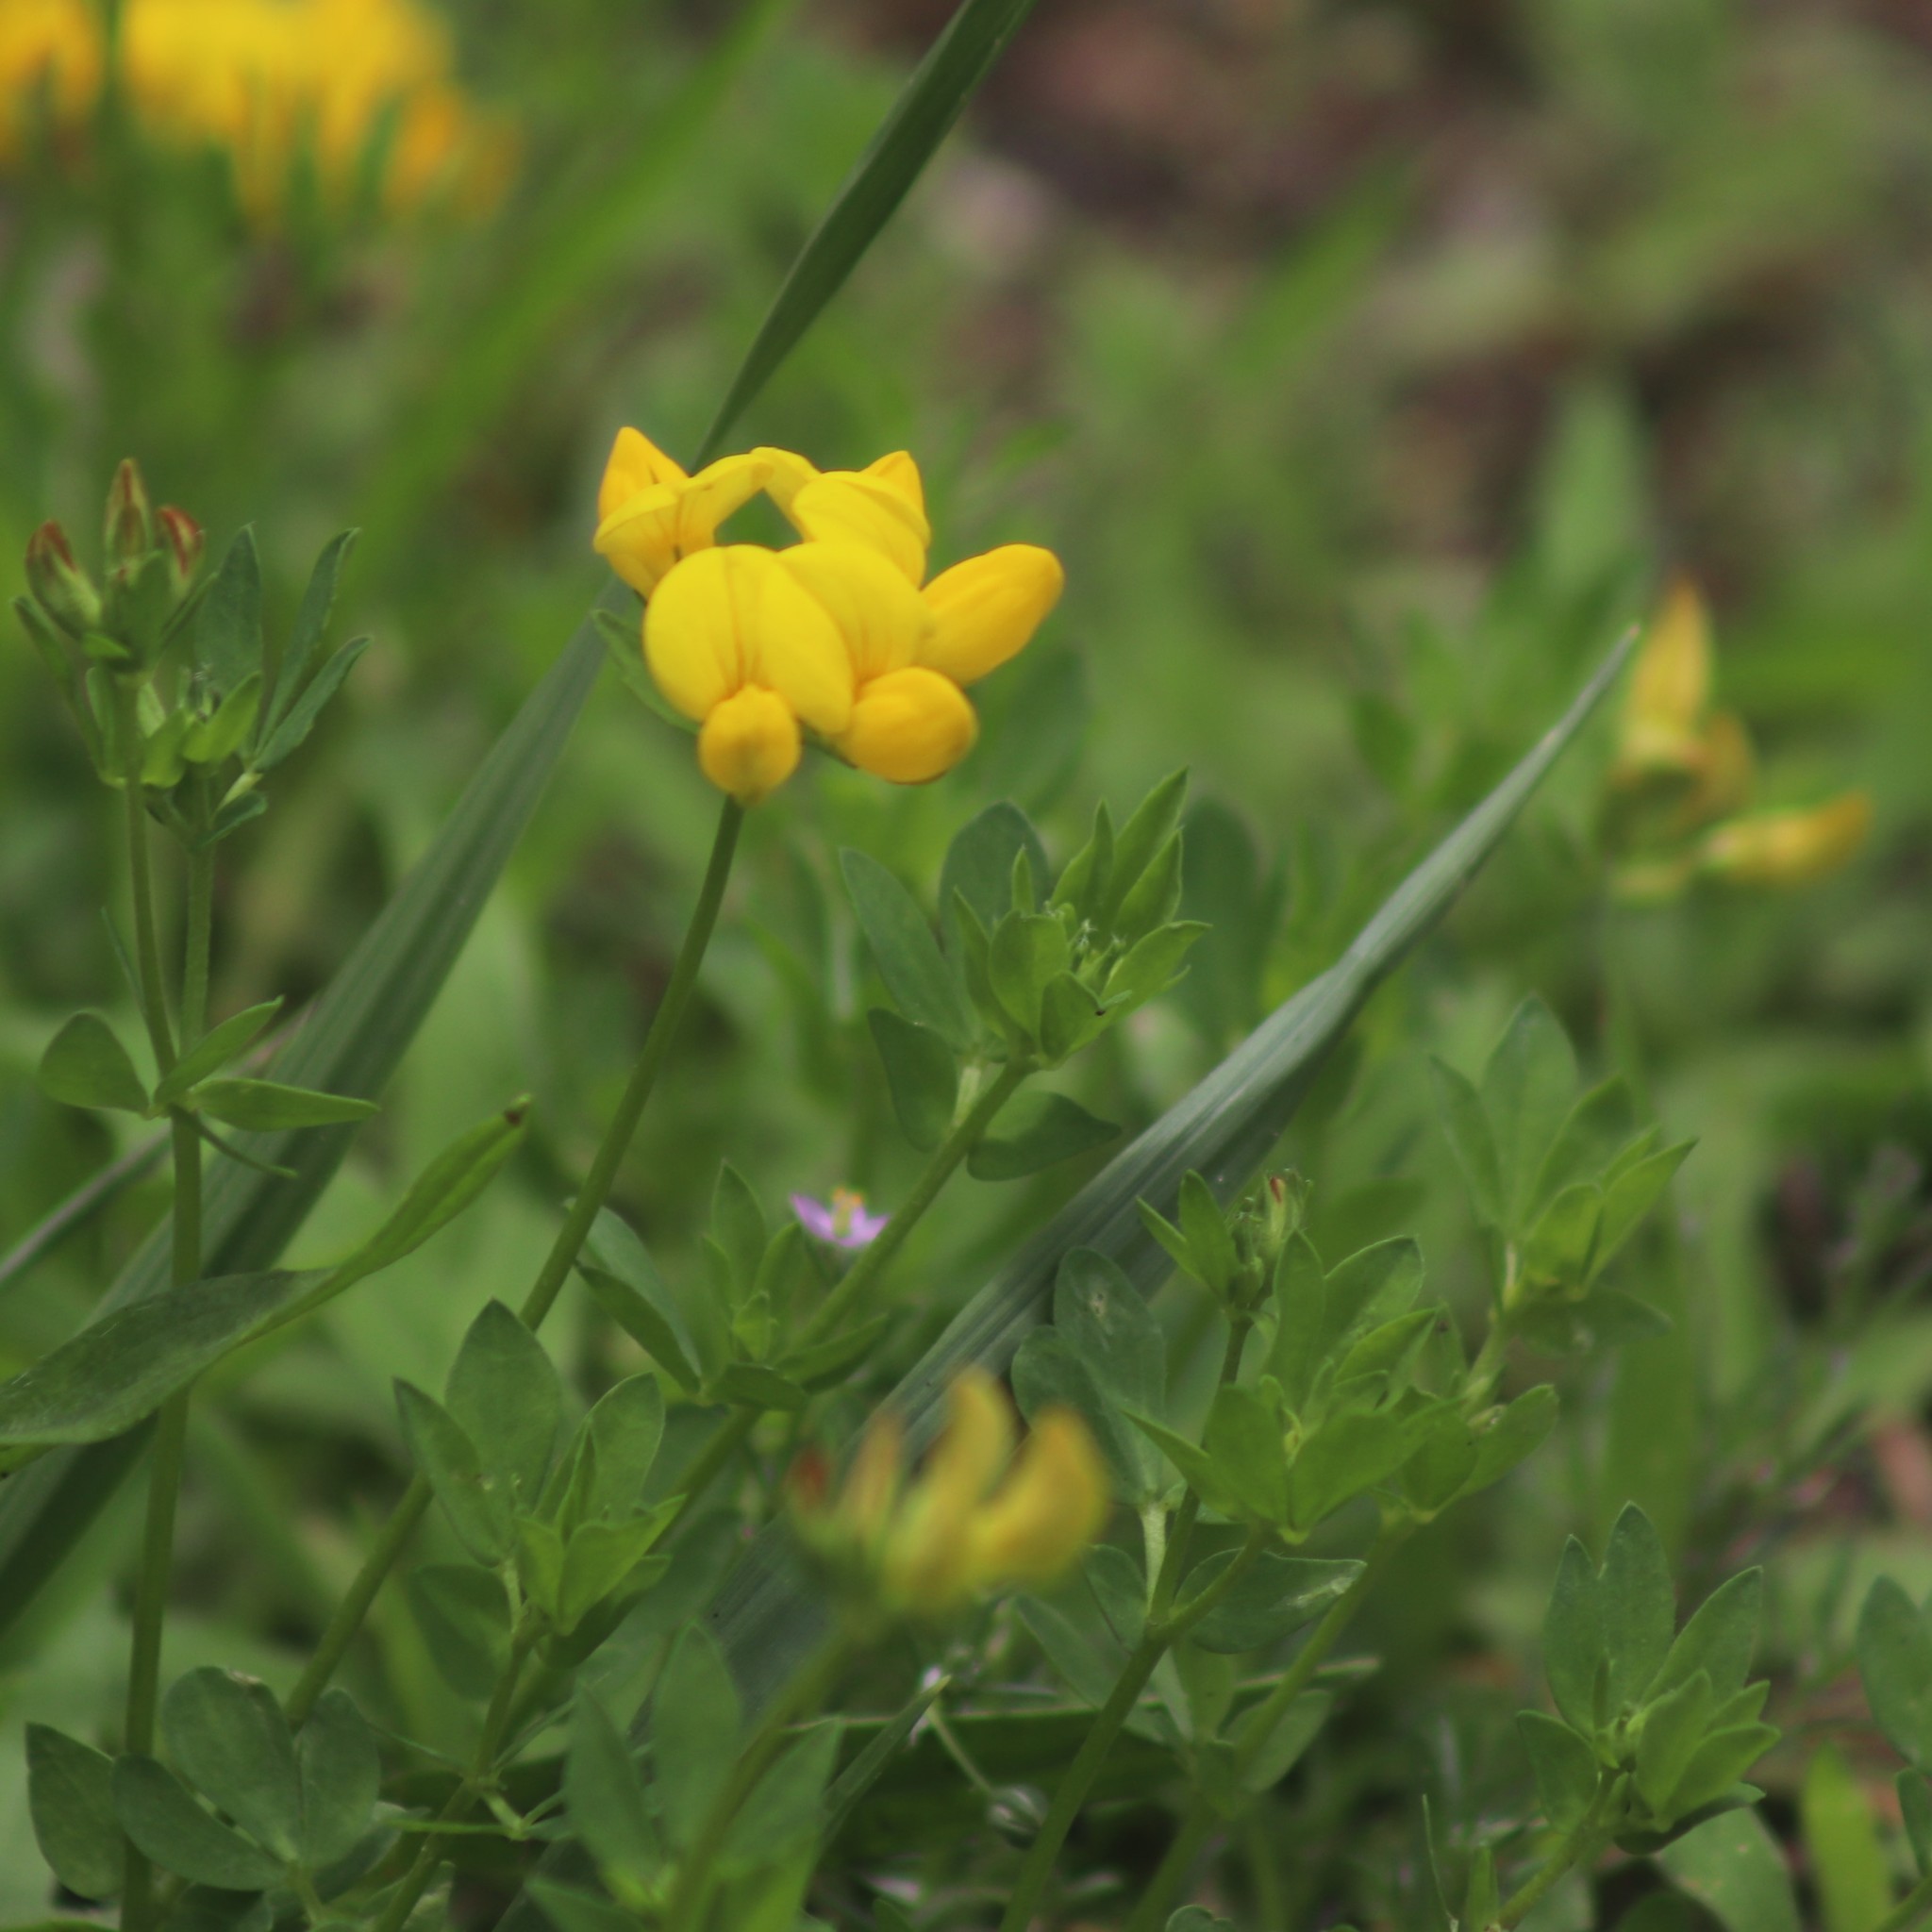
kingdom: Plantae
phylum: Tracheophyta
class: Magnoliopsida
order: Fabales
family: Fabaceae
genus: Lotus
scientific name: Lotus corniculatus
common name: Common bird's-foot-trefoil
